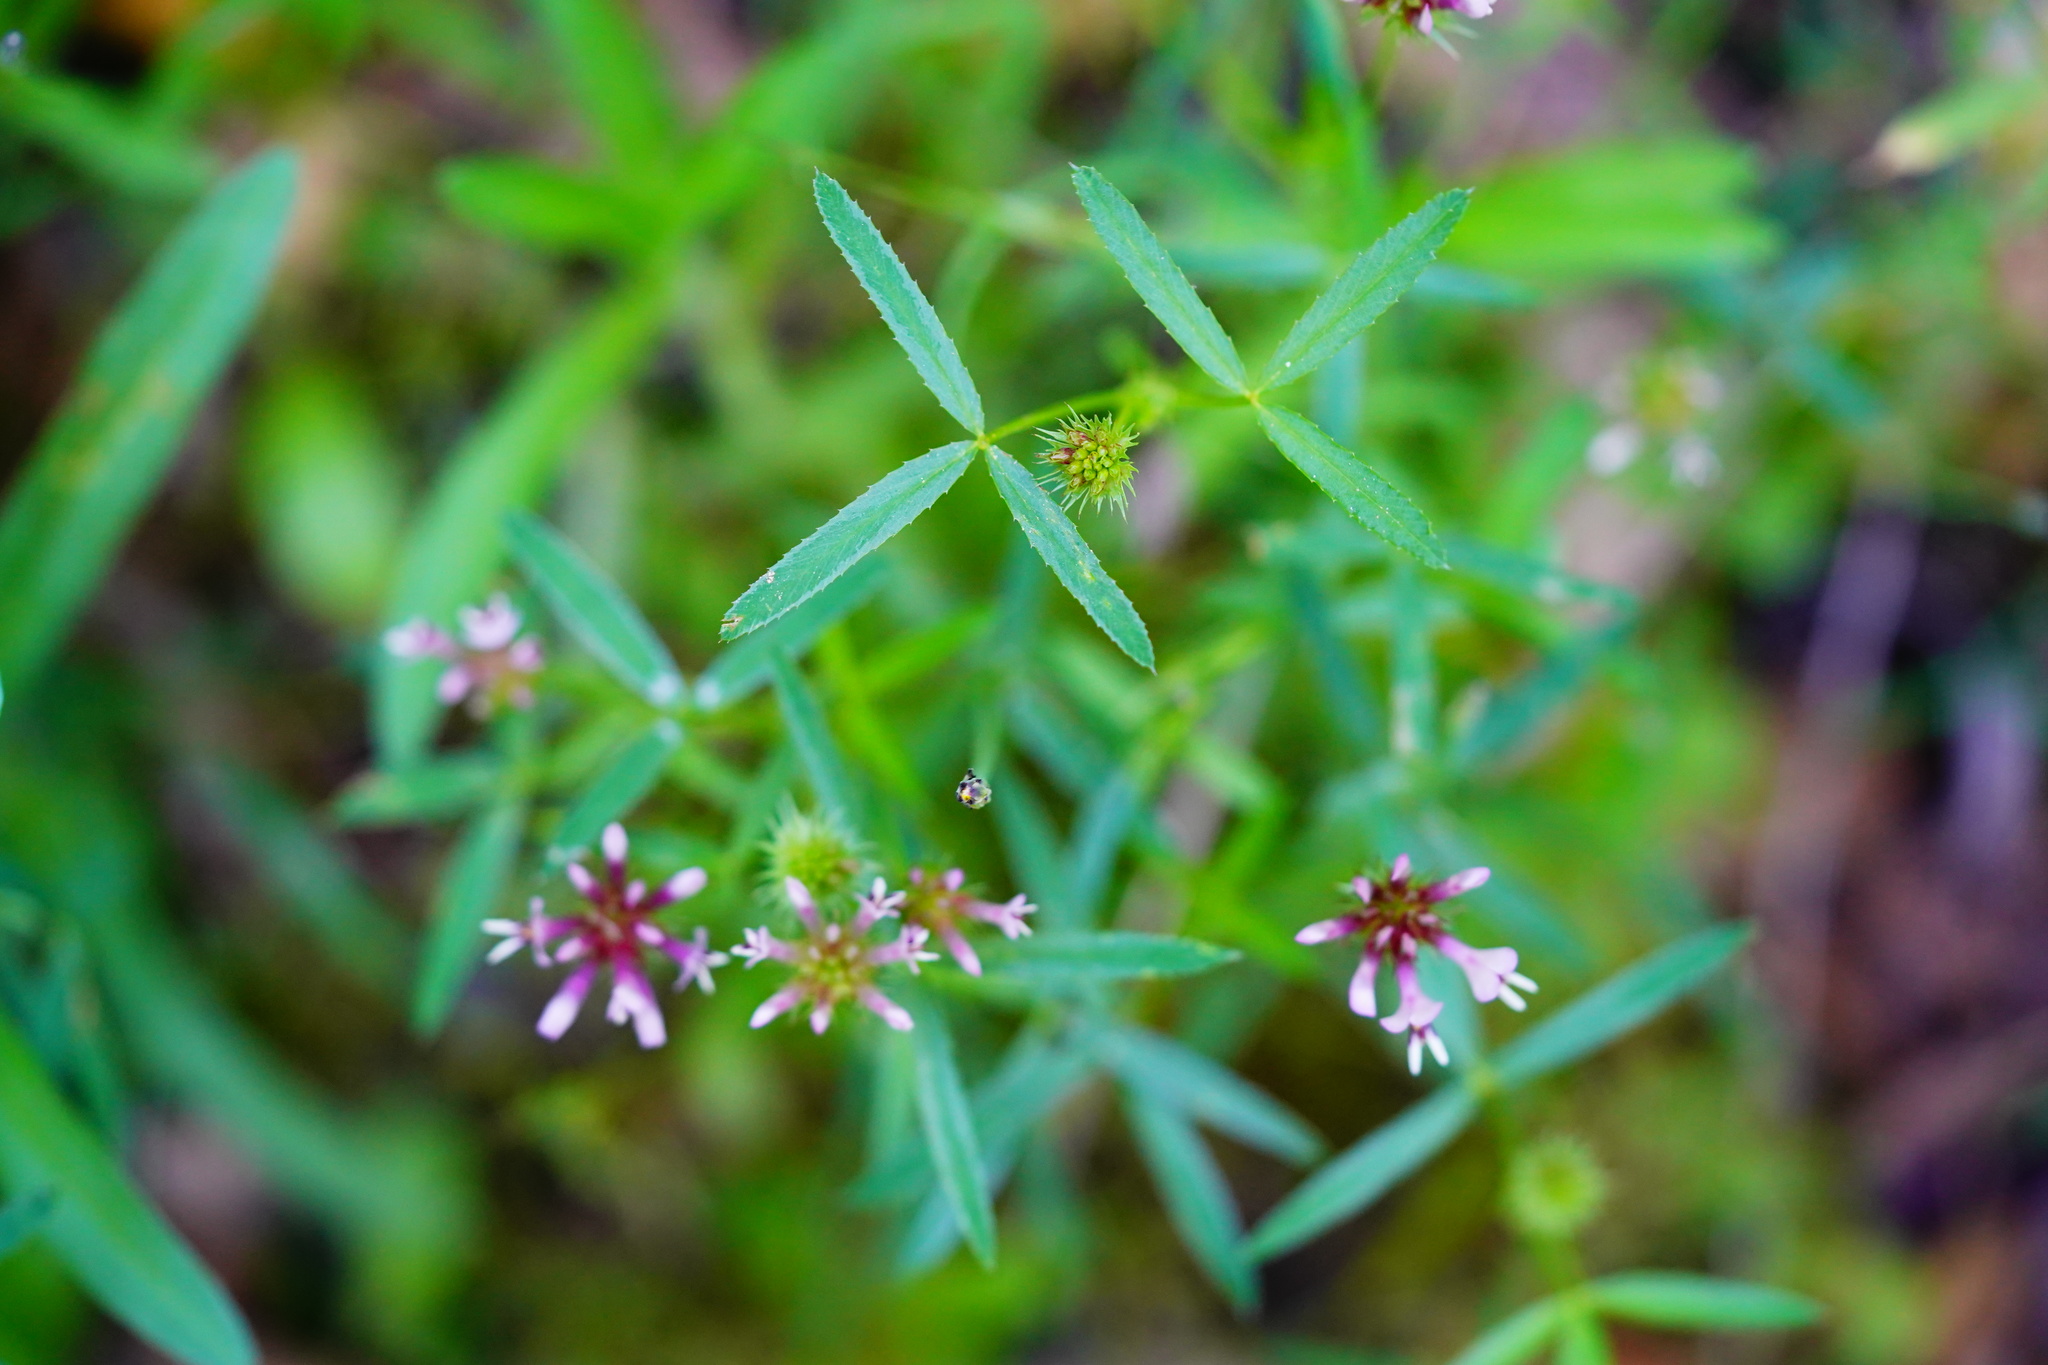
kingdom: Plantae
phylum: Tracheophyta
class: Magnoliopsida
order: Fabales
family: Fabaceae
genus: Trifolium
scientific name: Trifolium willdenovii
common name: Tomcat clover
